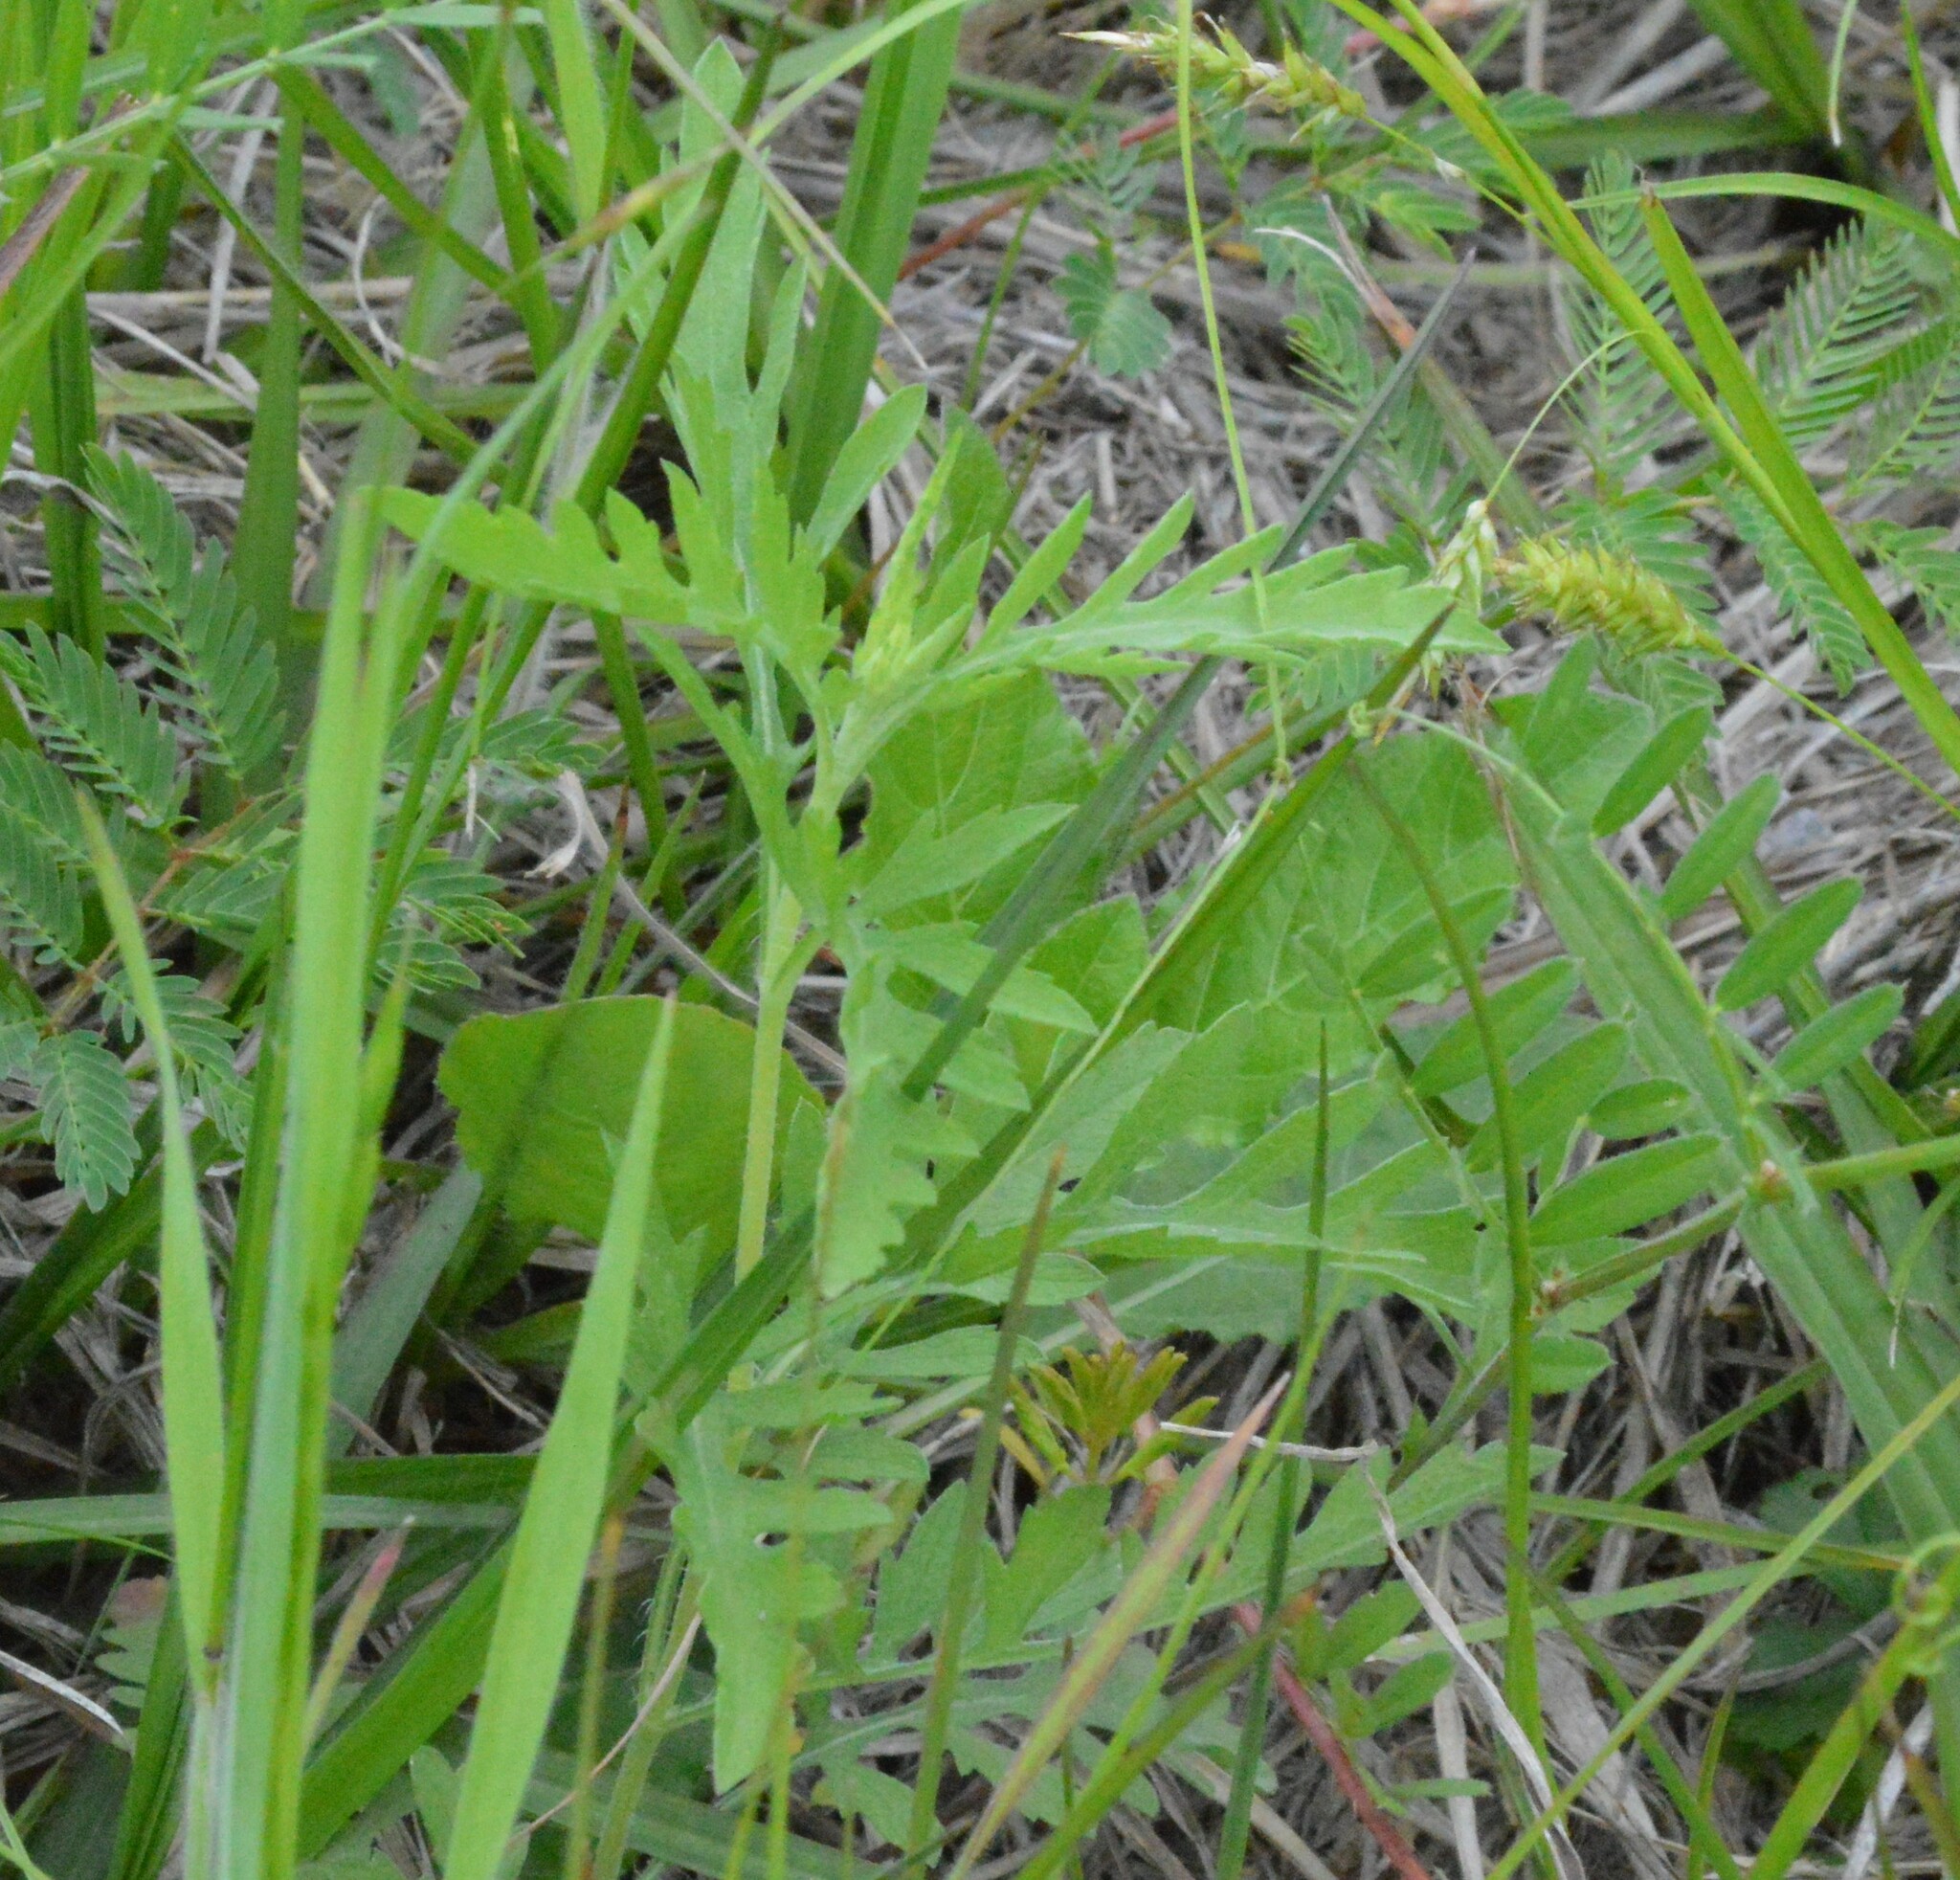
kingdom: Plantae
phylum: Tracheophyta
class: Magnoliopsida
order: Asterales
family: Asteraceae
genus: Ambrosia
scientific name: Ambrosia psilostachya
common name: Perennial ragweed
